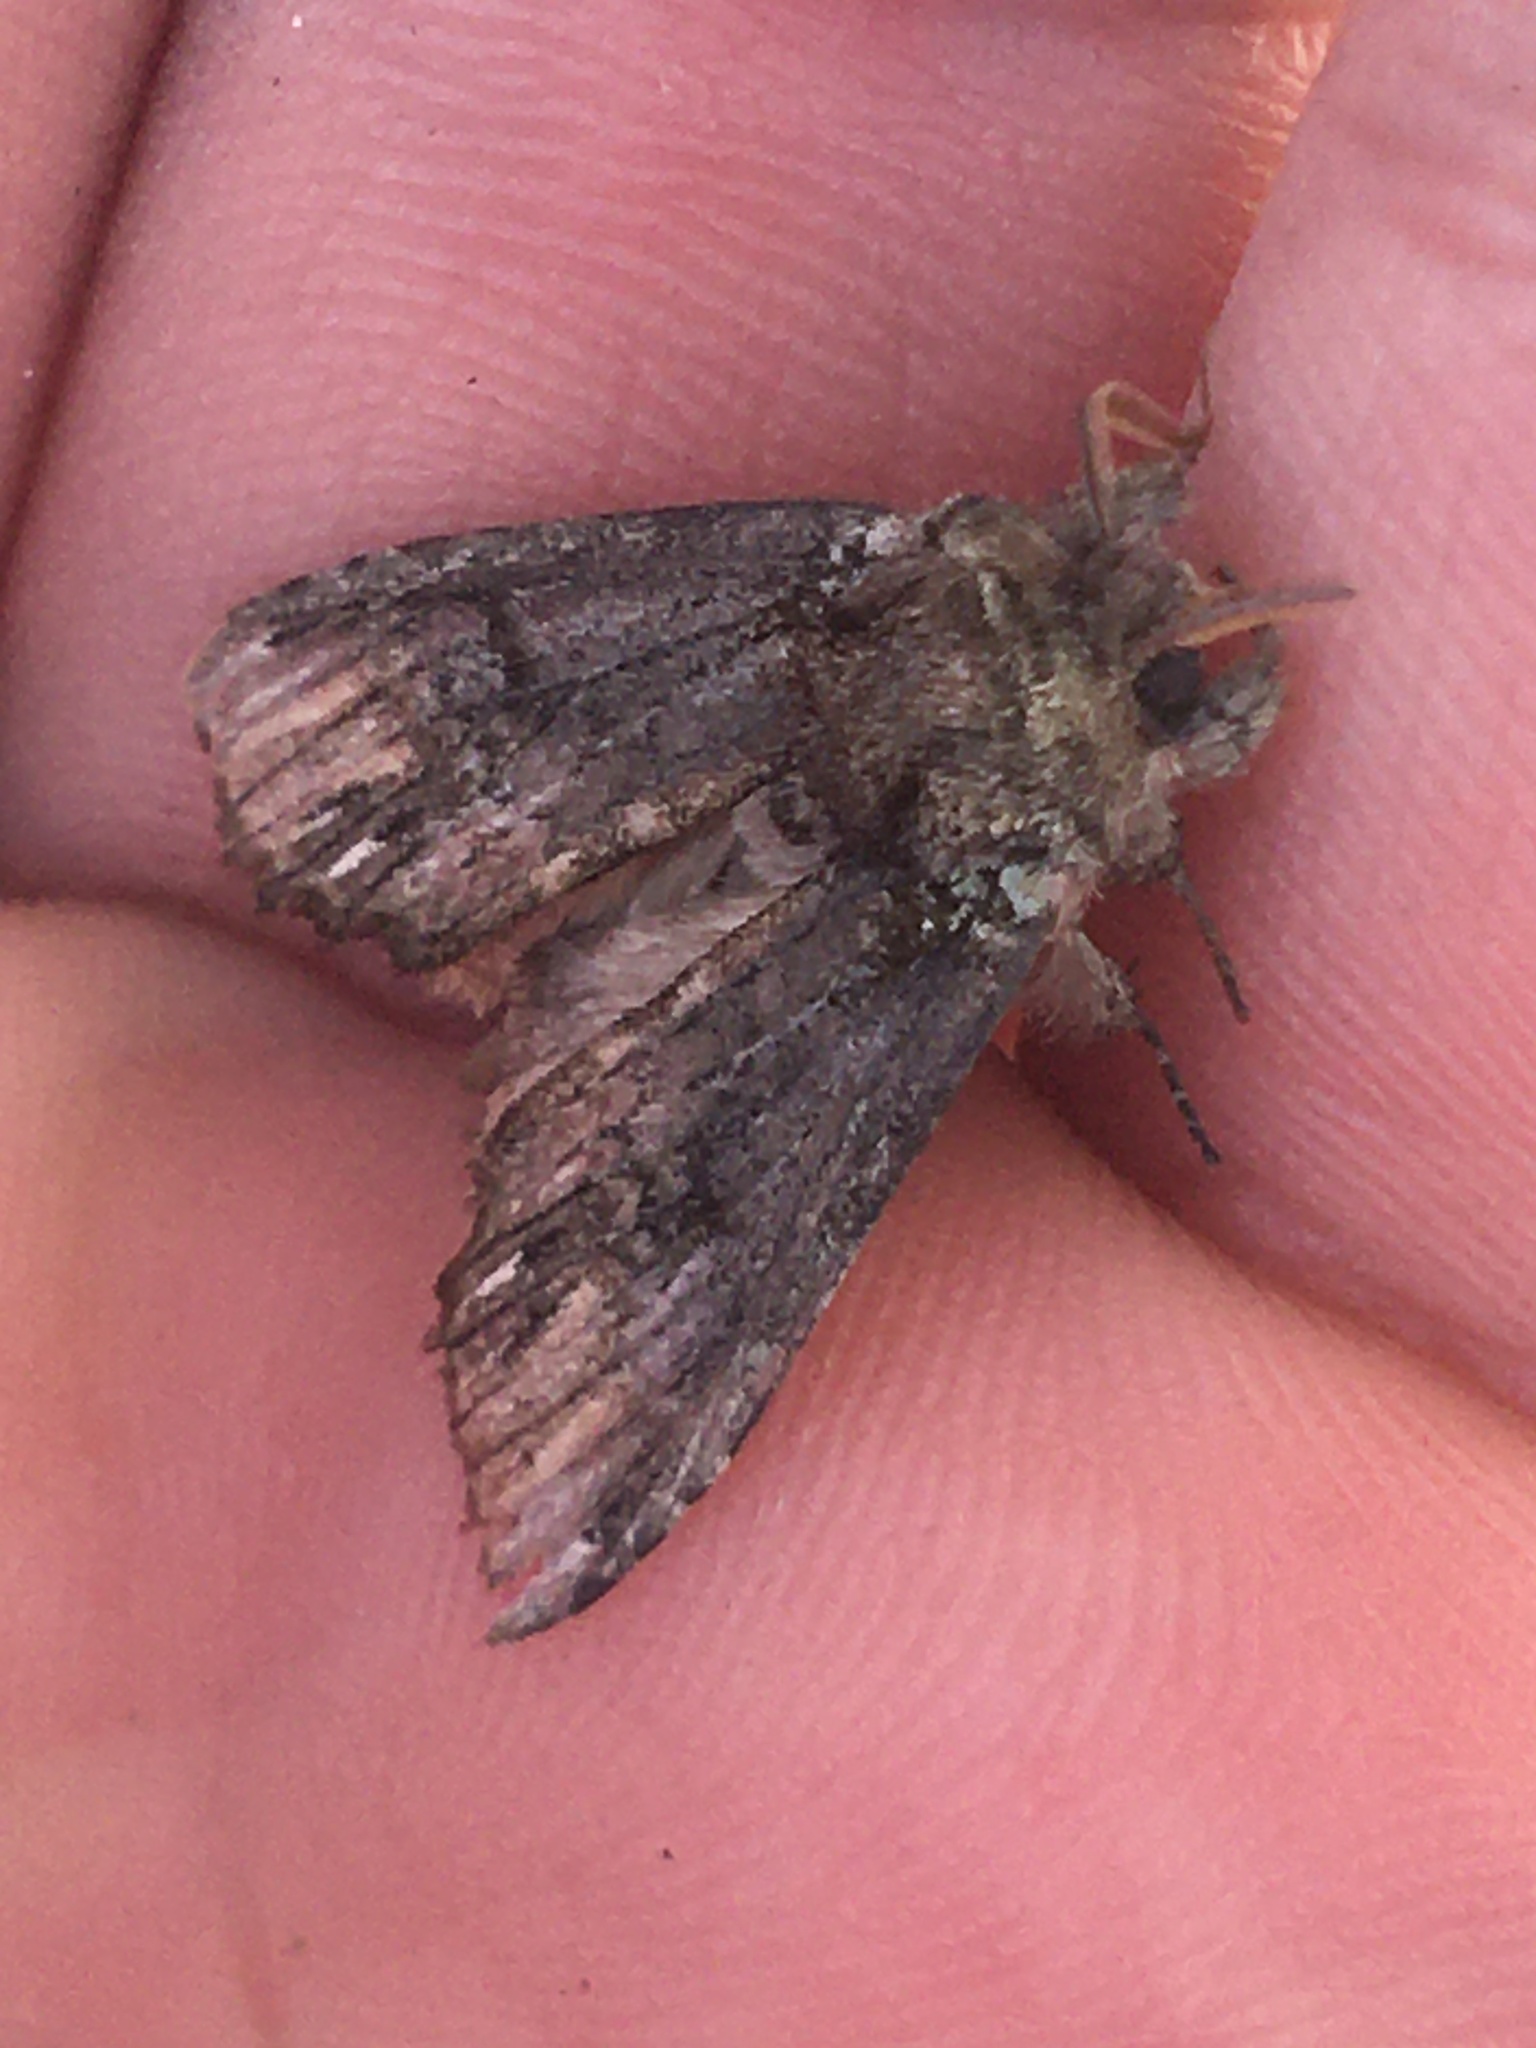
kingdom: Animalia
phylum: Arthropoda
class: Insecta
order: Lepidoptera
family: Notodontidae
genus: Schizura
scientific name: Schizura
